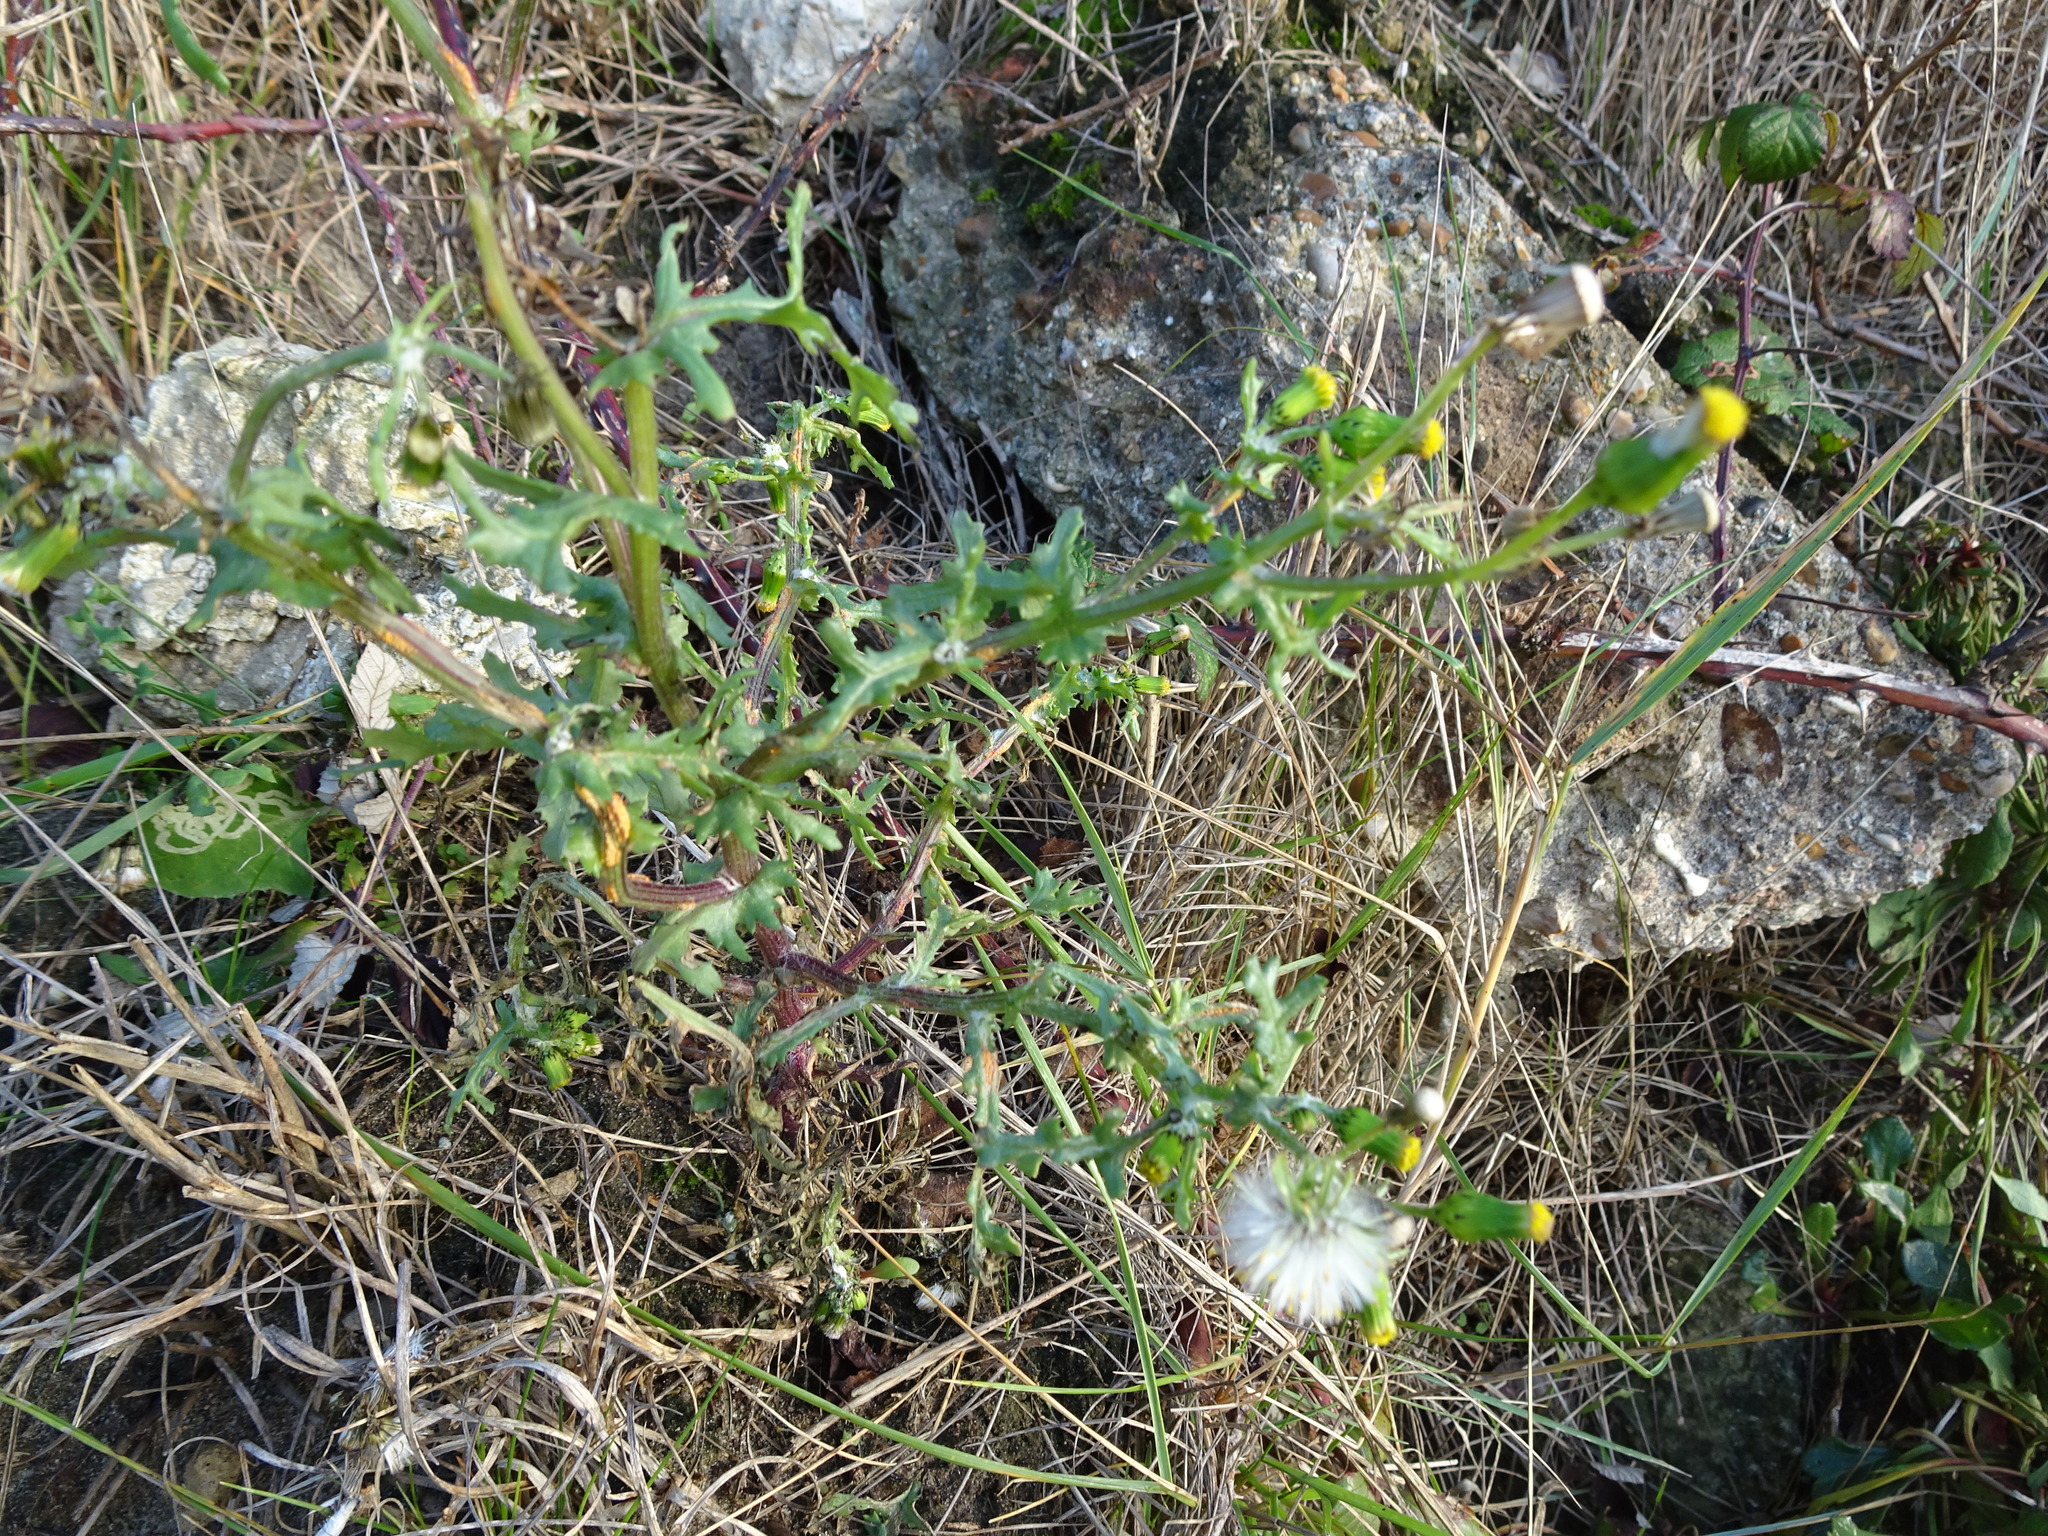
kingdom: Plantae
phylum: Tracheophyta
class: Magnoliopsida
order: Asterales
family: Asteraceae
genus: Senecio
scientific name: Senecio vulgaris
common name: Old-man-in-the-spring
